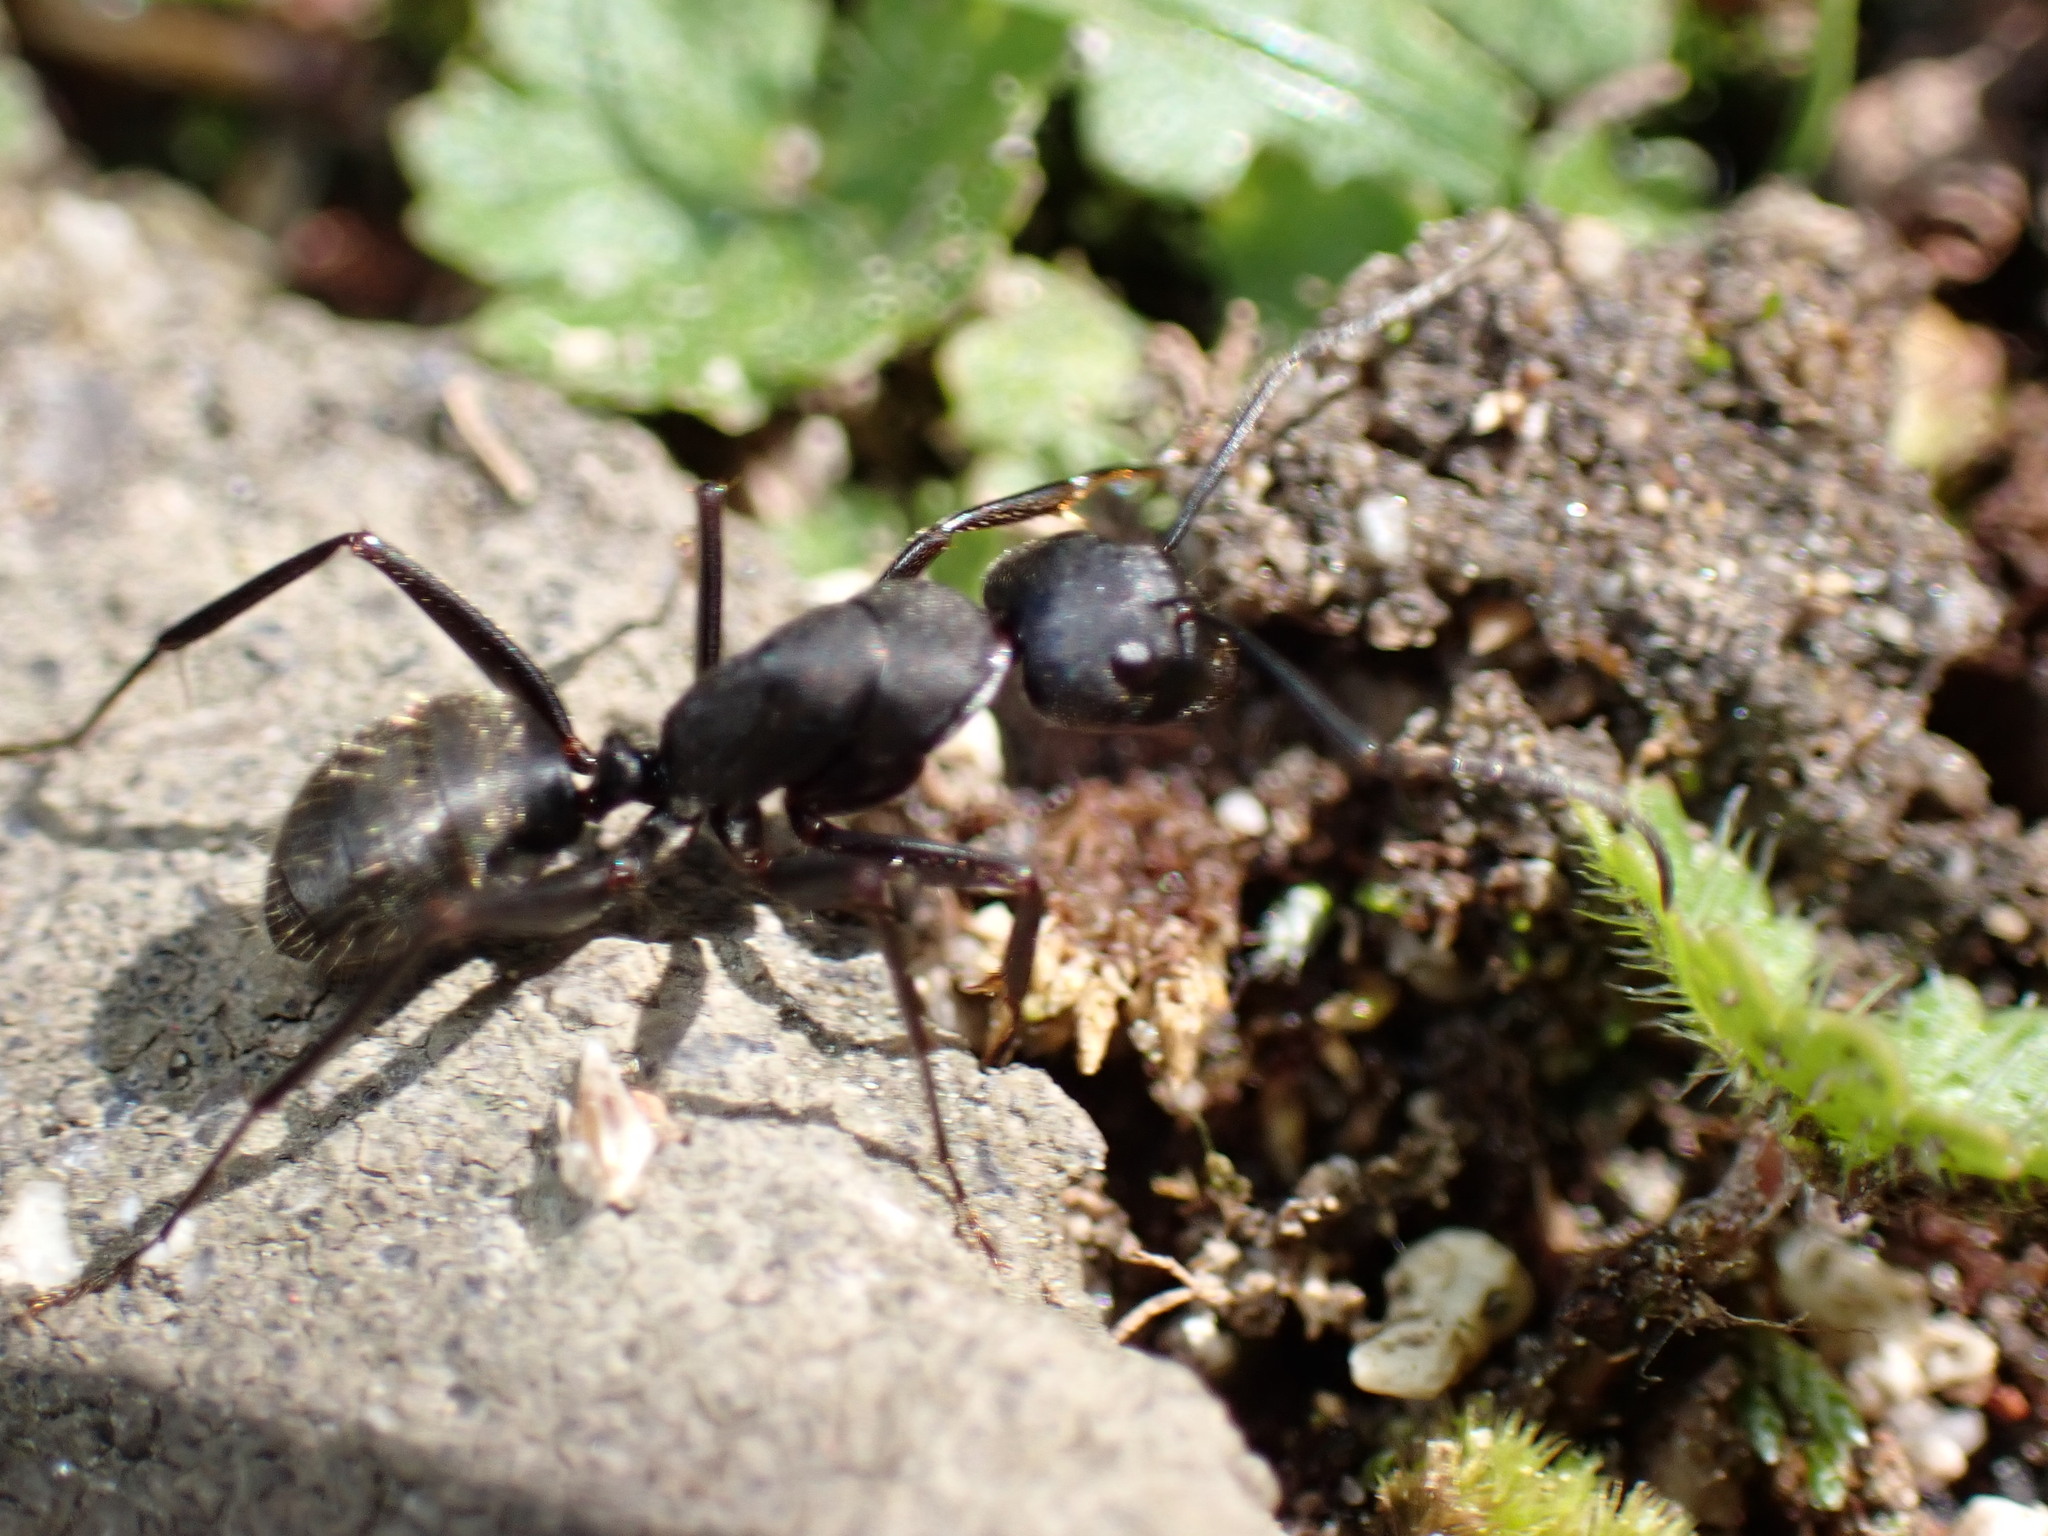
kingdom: Animalia
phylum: Arthropoda
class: Insecta
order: Hymenoptera
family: Formicidae
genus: Camponotus
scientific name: Camponotus japonicus
